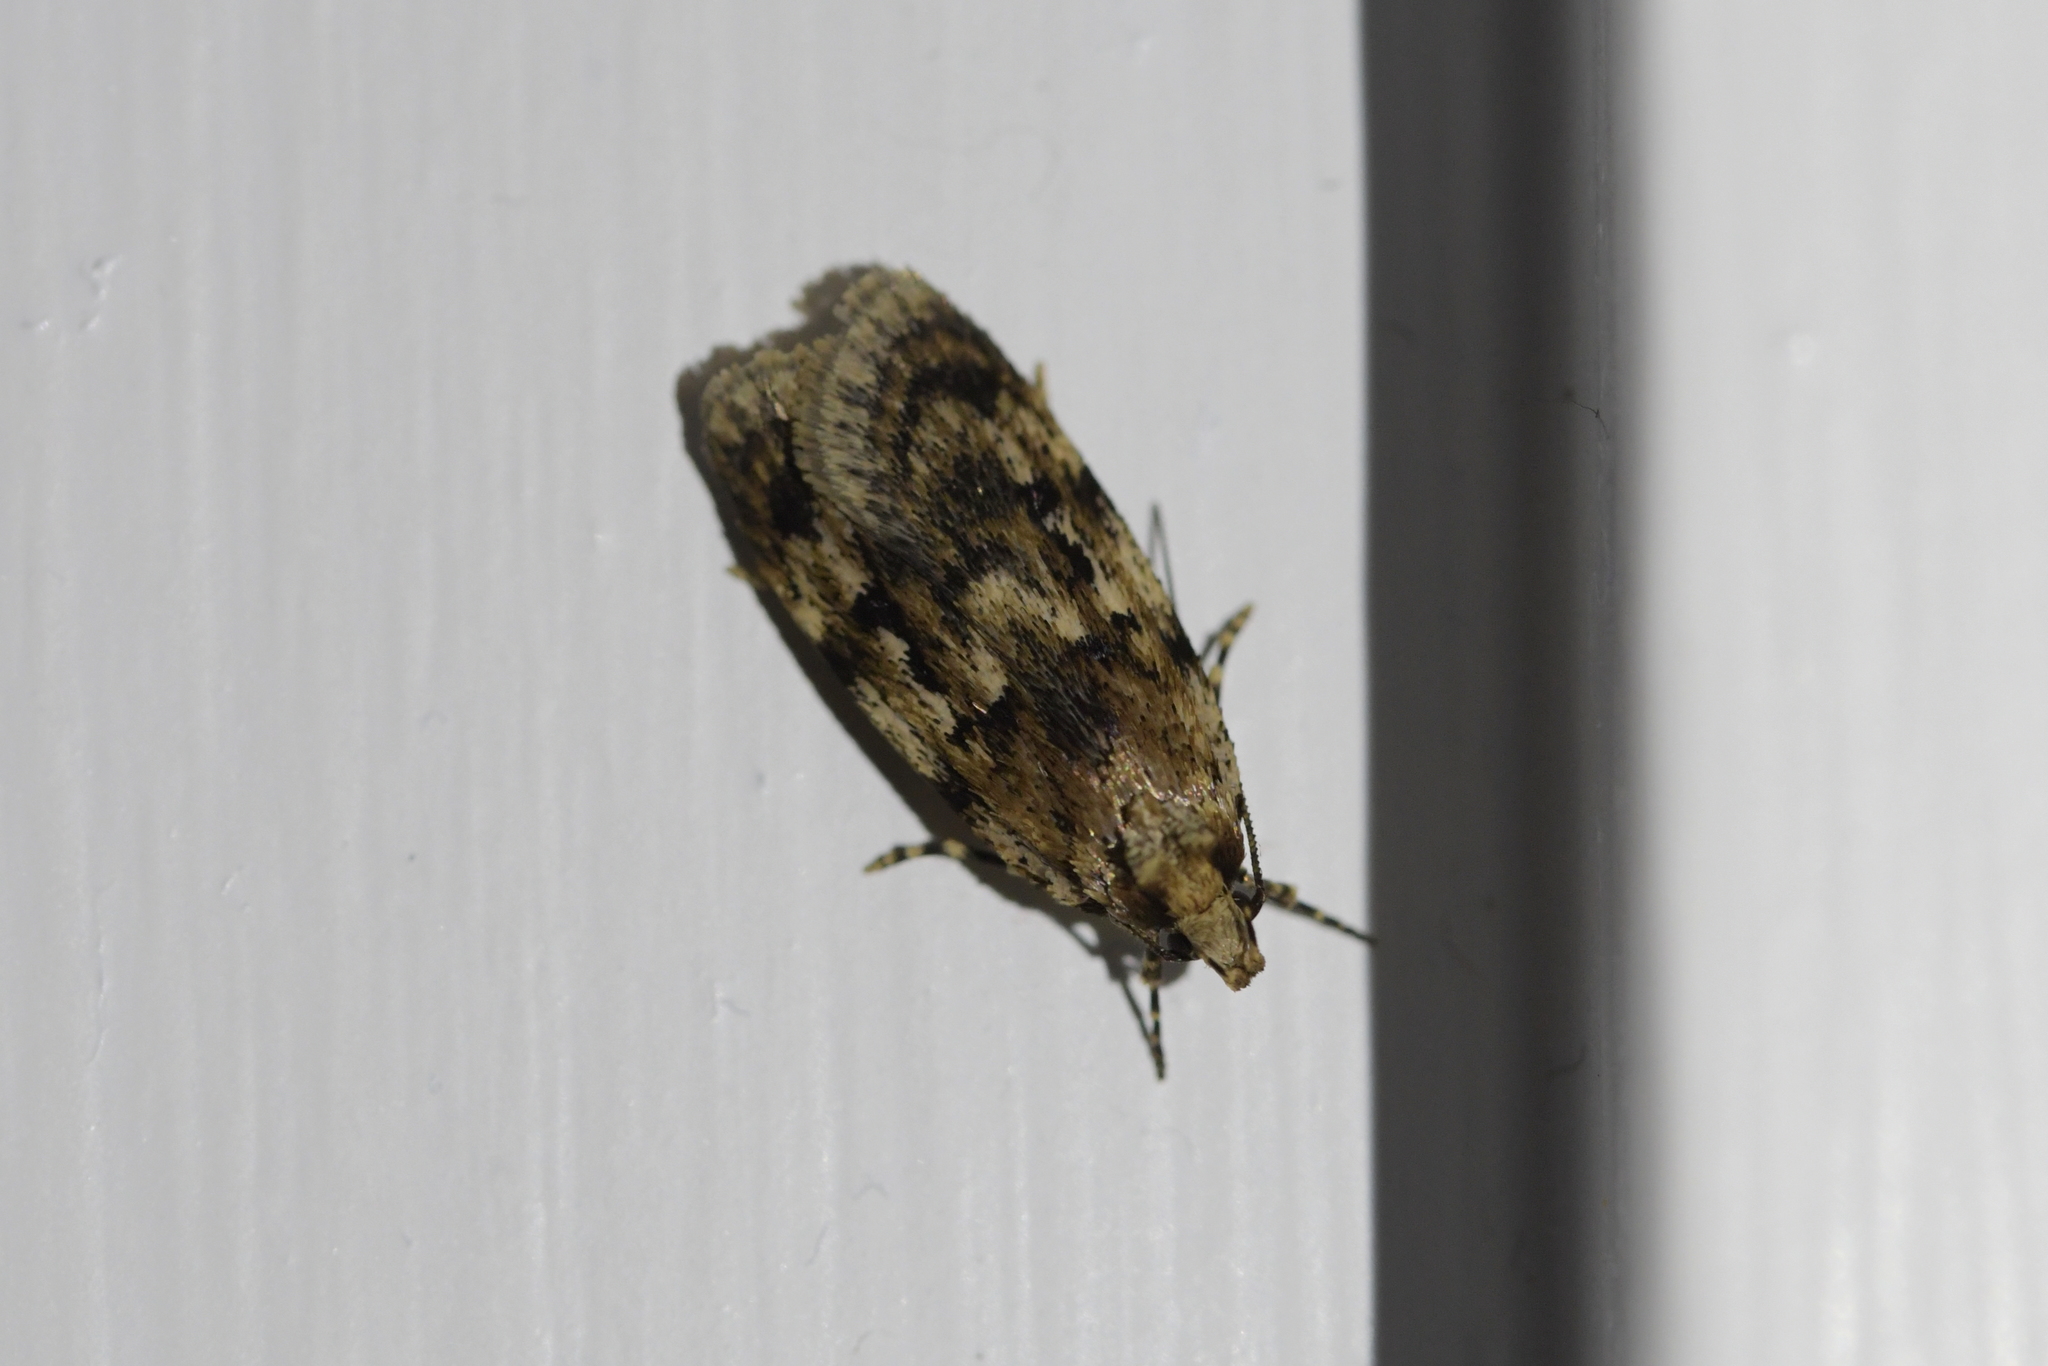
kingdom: Animalia
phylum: Arthropoda
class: Insecta
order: Lepidoptera
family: Oecophoridae
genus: Barea
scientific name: Barea exarcha
